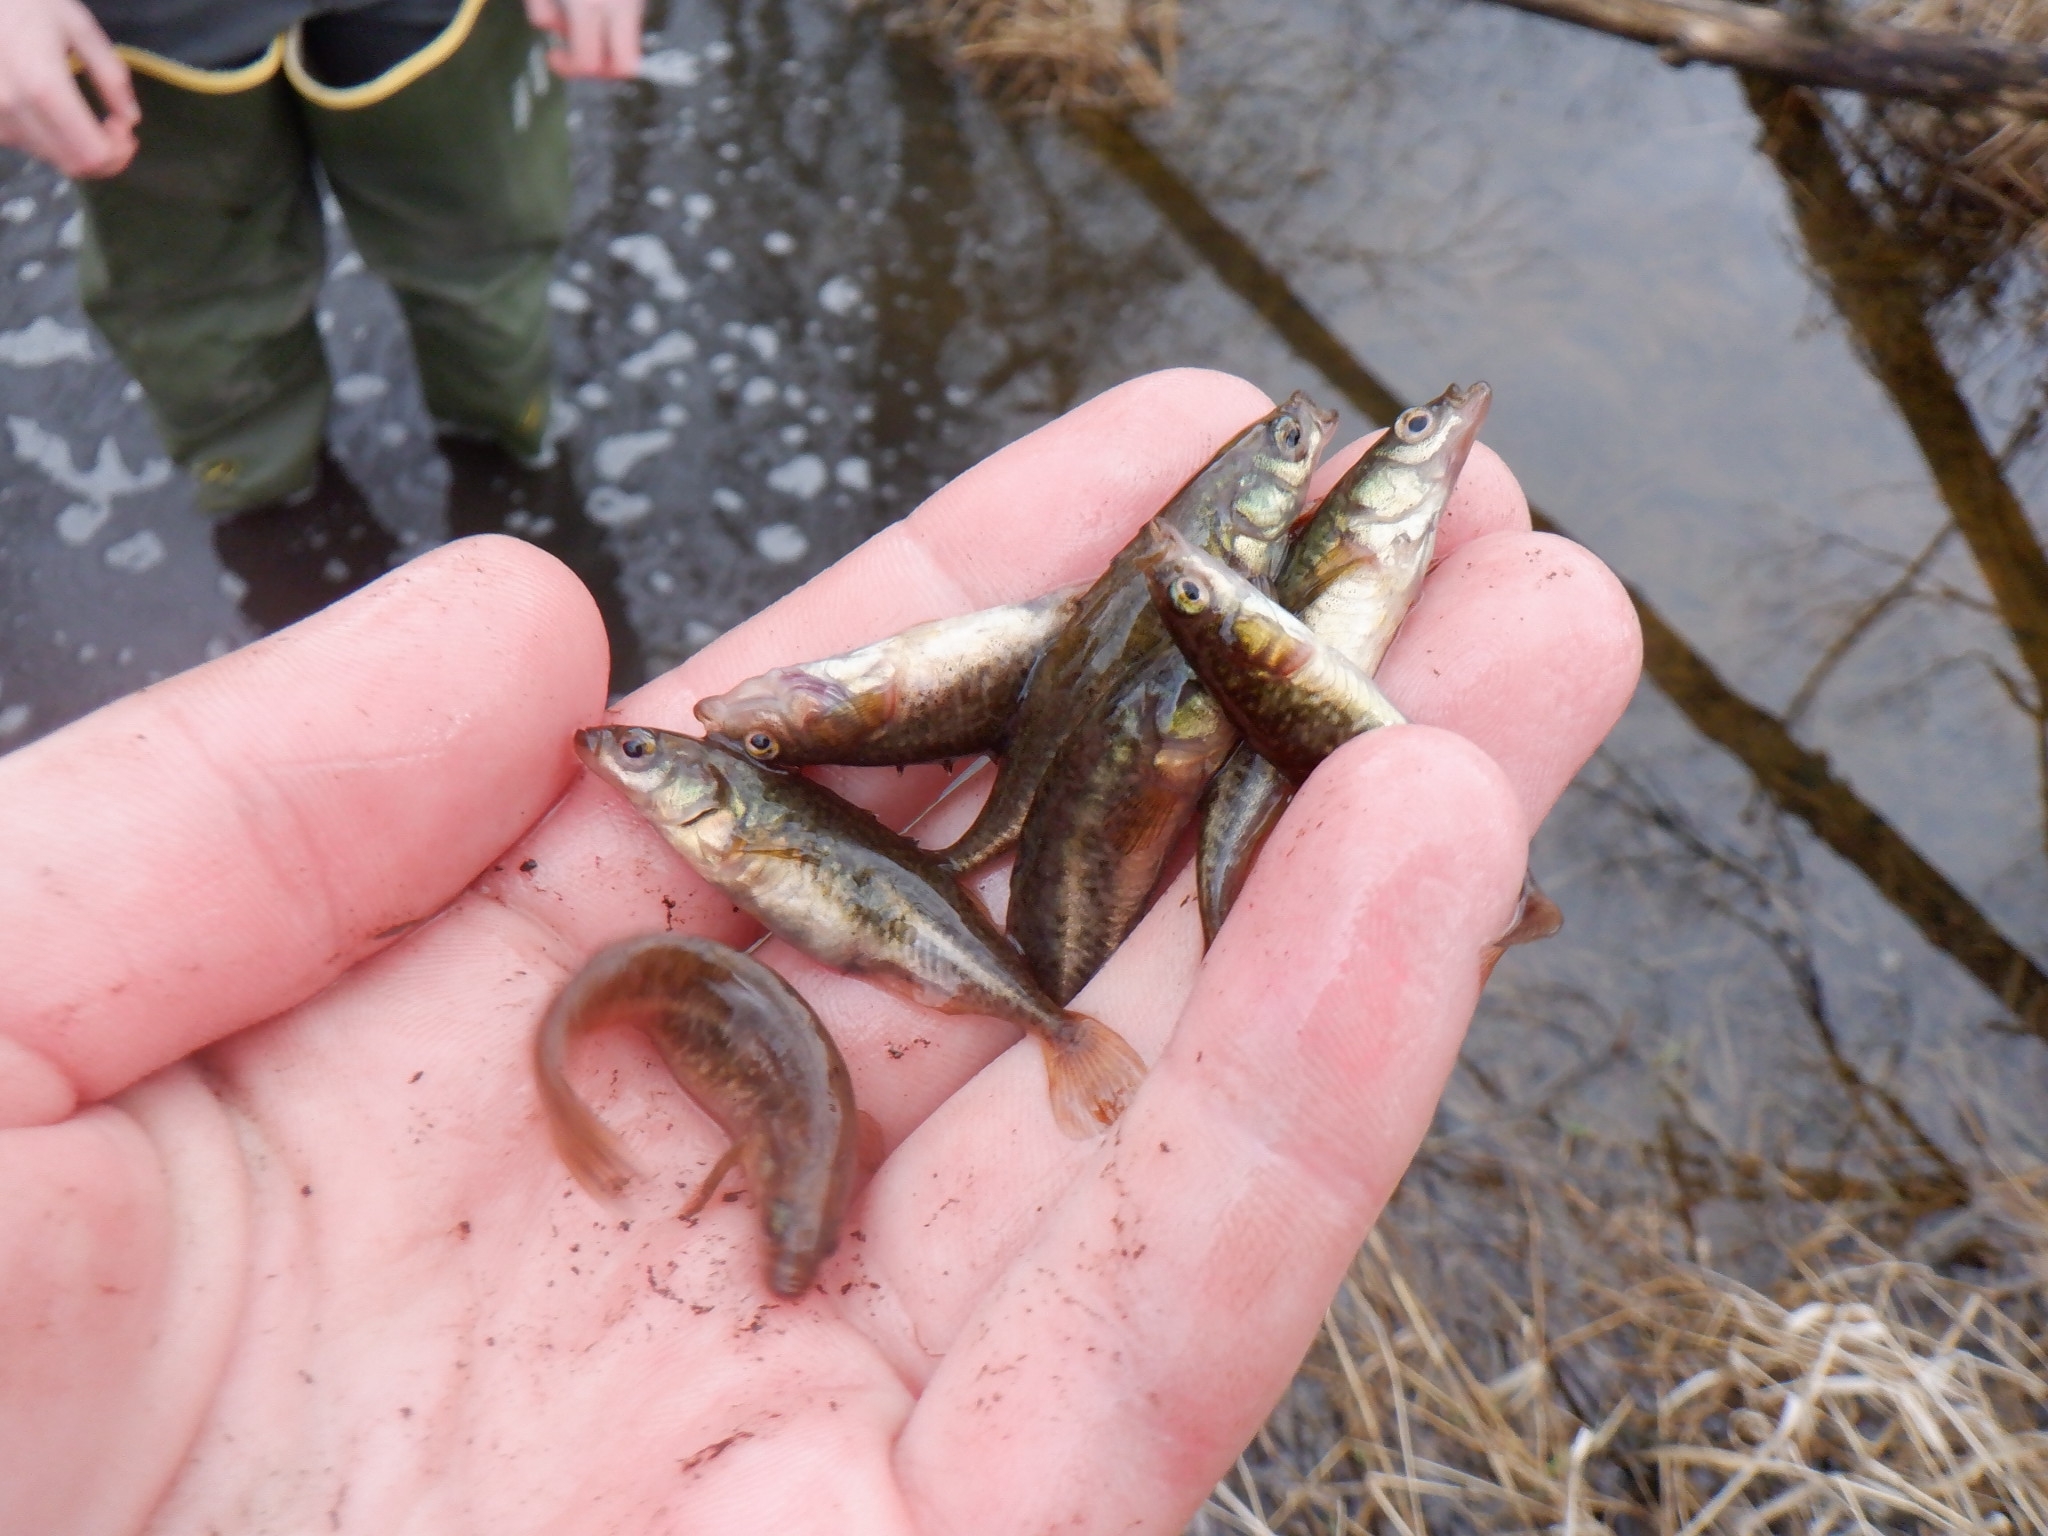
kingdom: Animalia
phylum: Chordata
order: Gasterosteiformes
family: Gasterosteidae
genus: Culaea
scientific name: Culaea inconstans
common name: Brook stickleback
